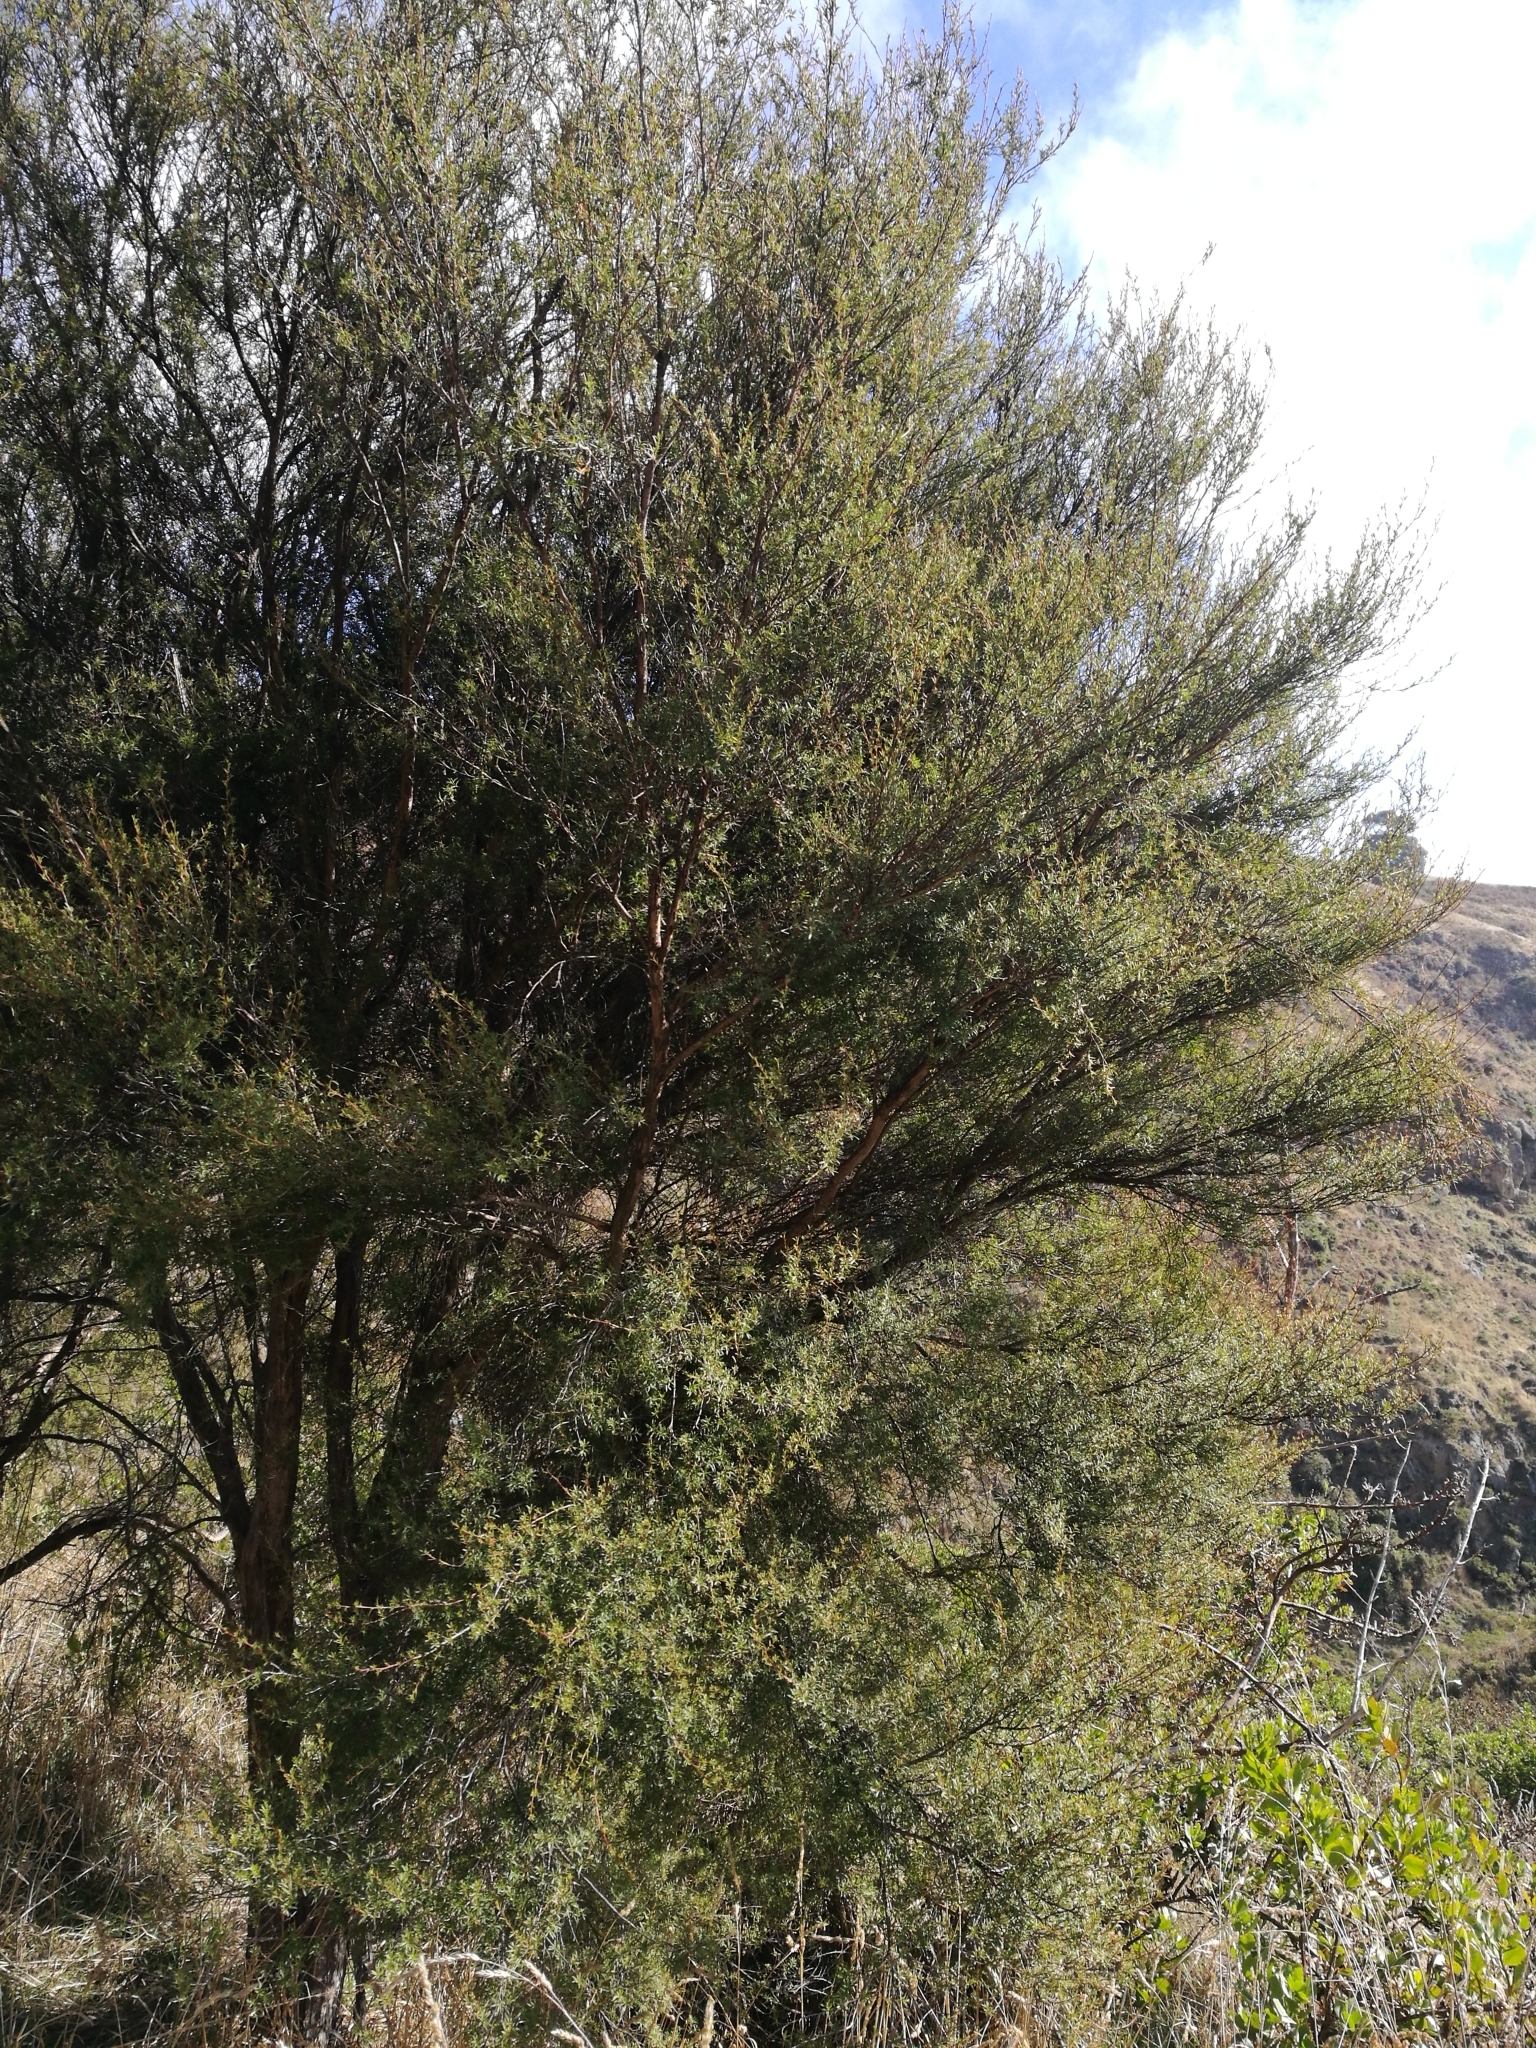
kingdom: Plantae
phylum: Tracheophyta
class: Magnoliopsida
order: Myrtales
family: Myrtaceae
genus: Kunzea
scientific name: Kunzea robusta
